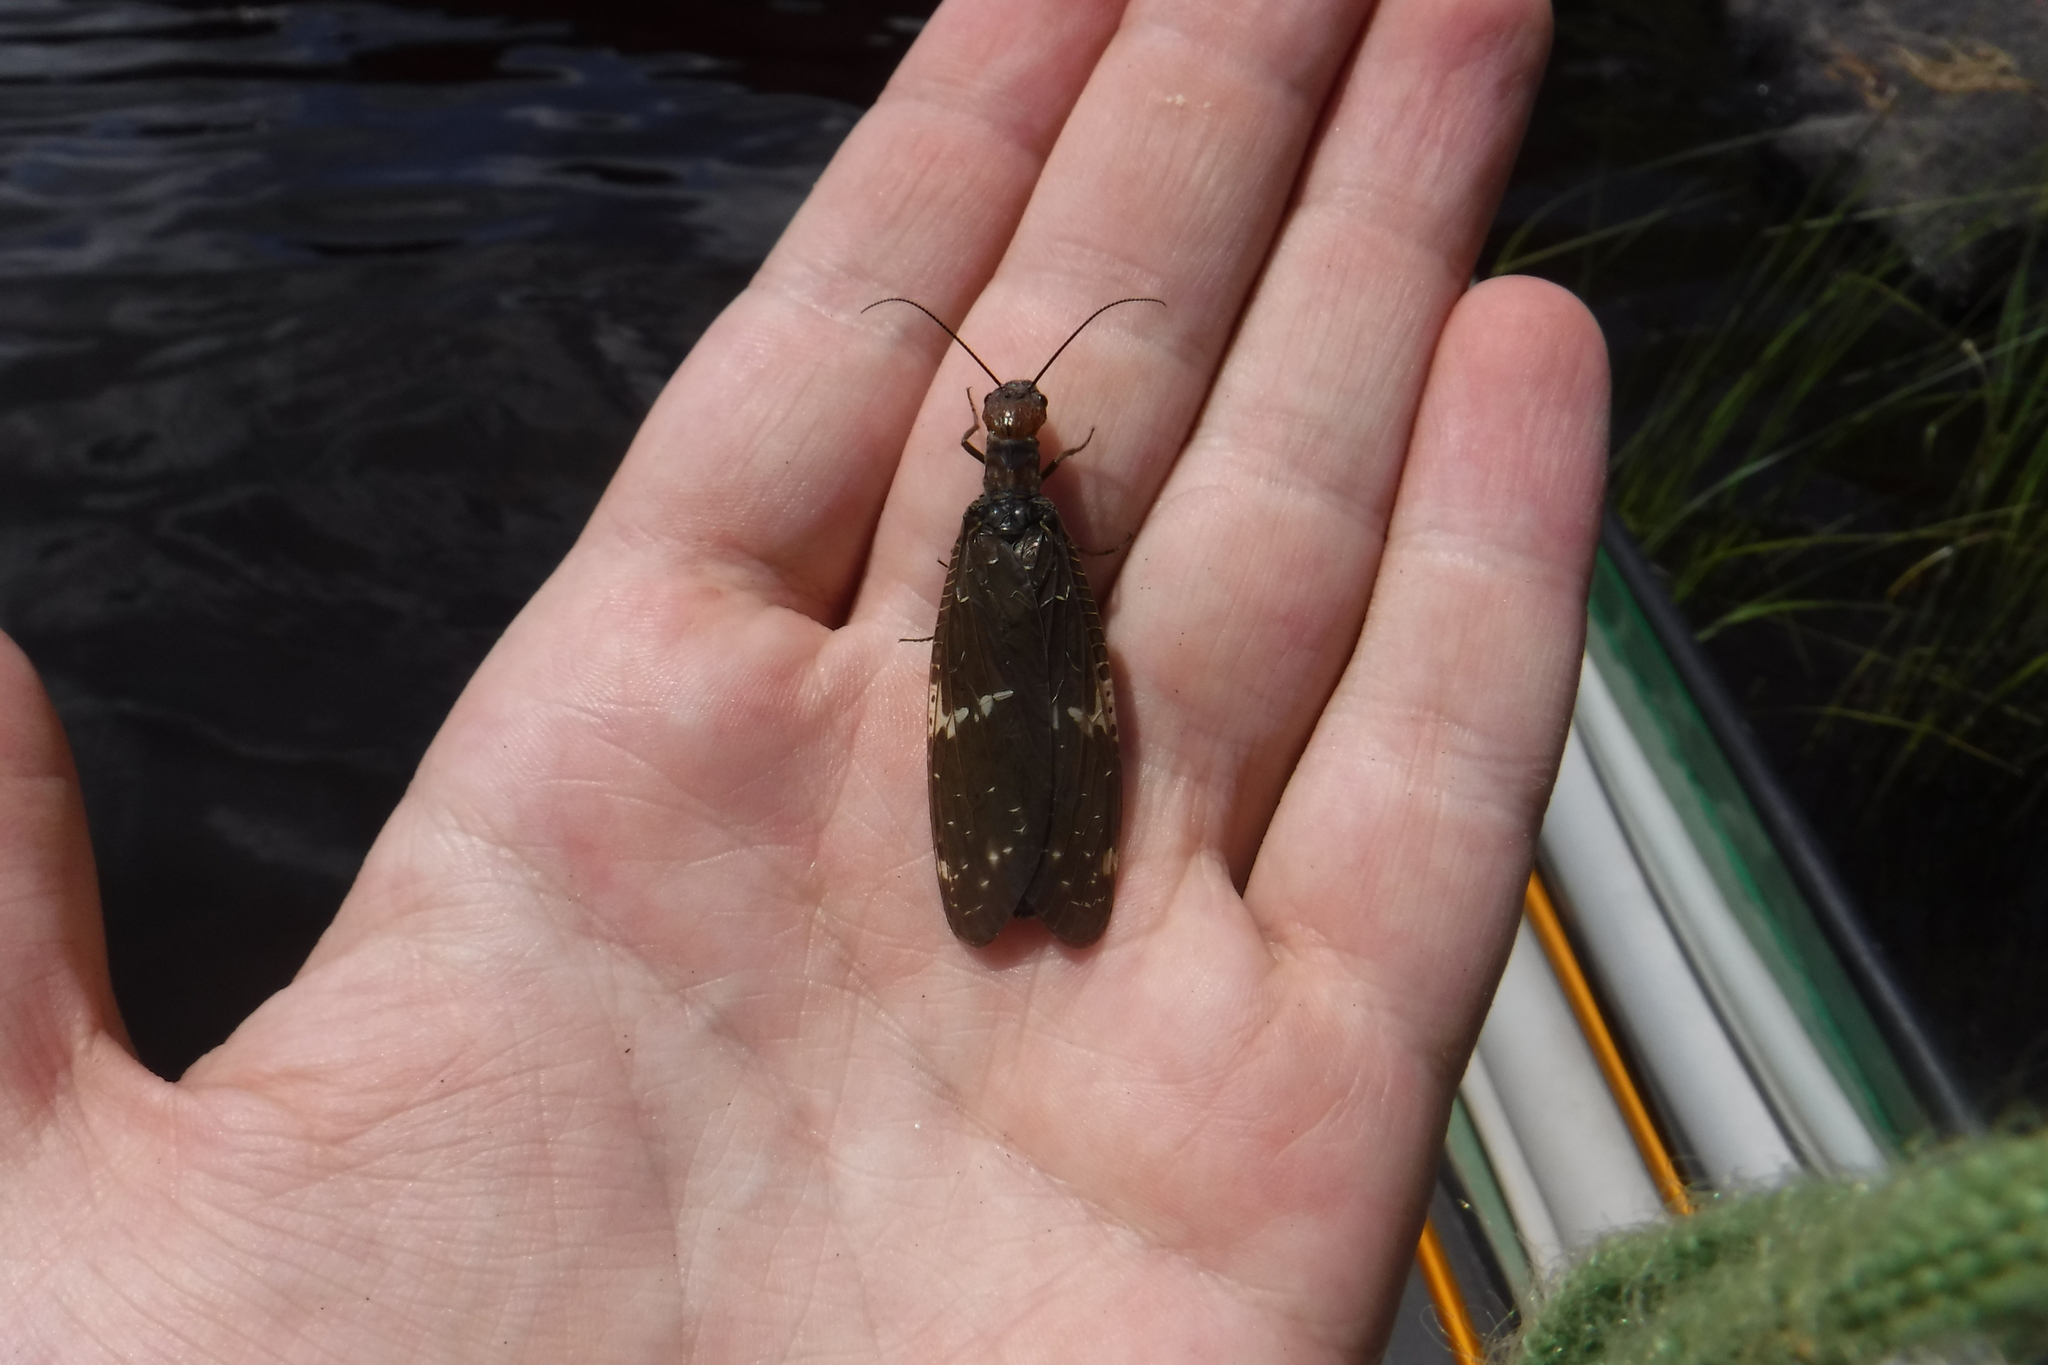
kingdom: Animalia
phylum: Arthropoda
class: Insecta
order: Megaloptera
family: Corydalidae
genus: Nigronia
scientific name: Nigronia serricornis
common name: Serrate dark fishfly
